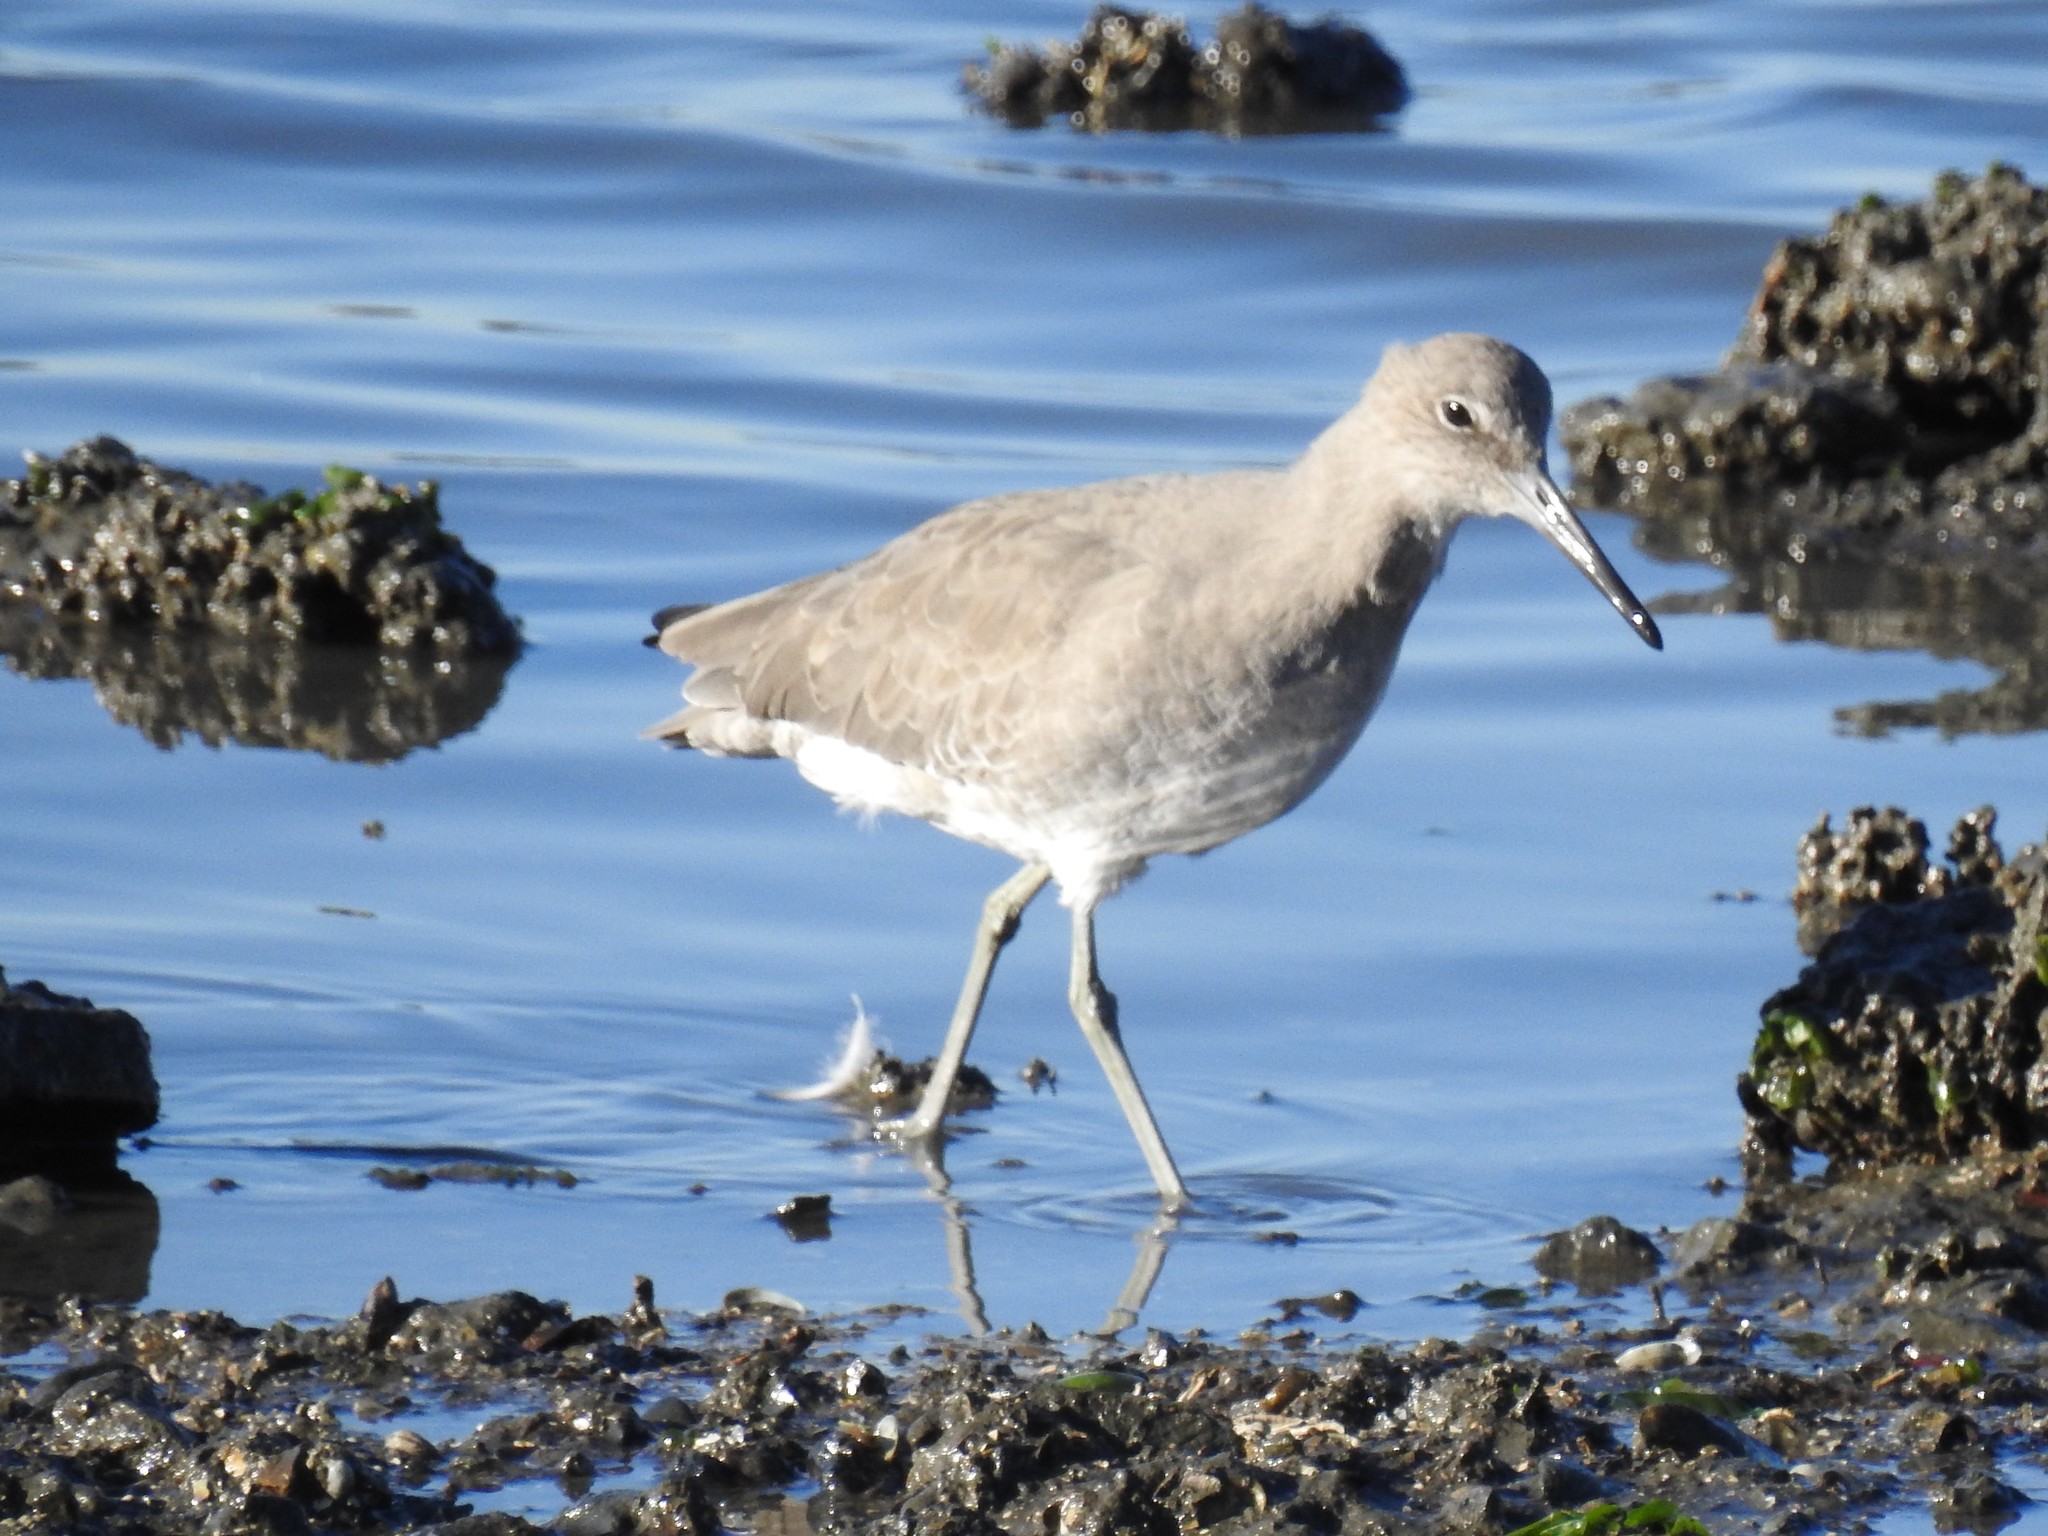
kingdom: Animalia
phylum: Chordata
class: Aves
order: Charadriiformes
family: Scolopacidae
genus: Tringa
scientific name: Tringa semipalmata
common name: Willet
